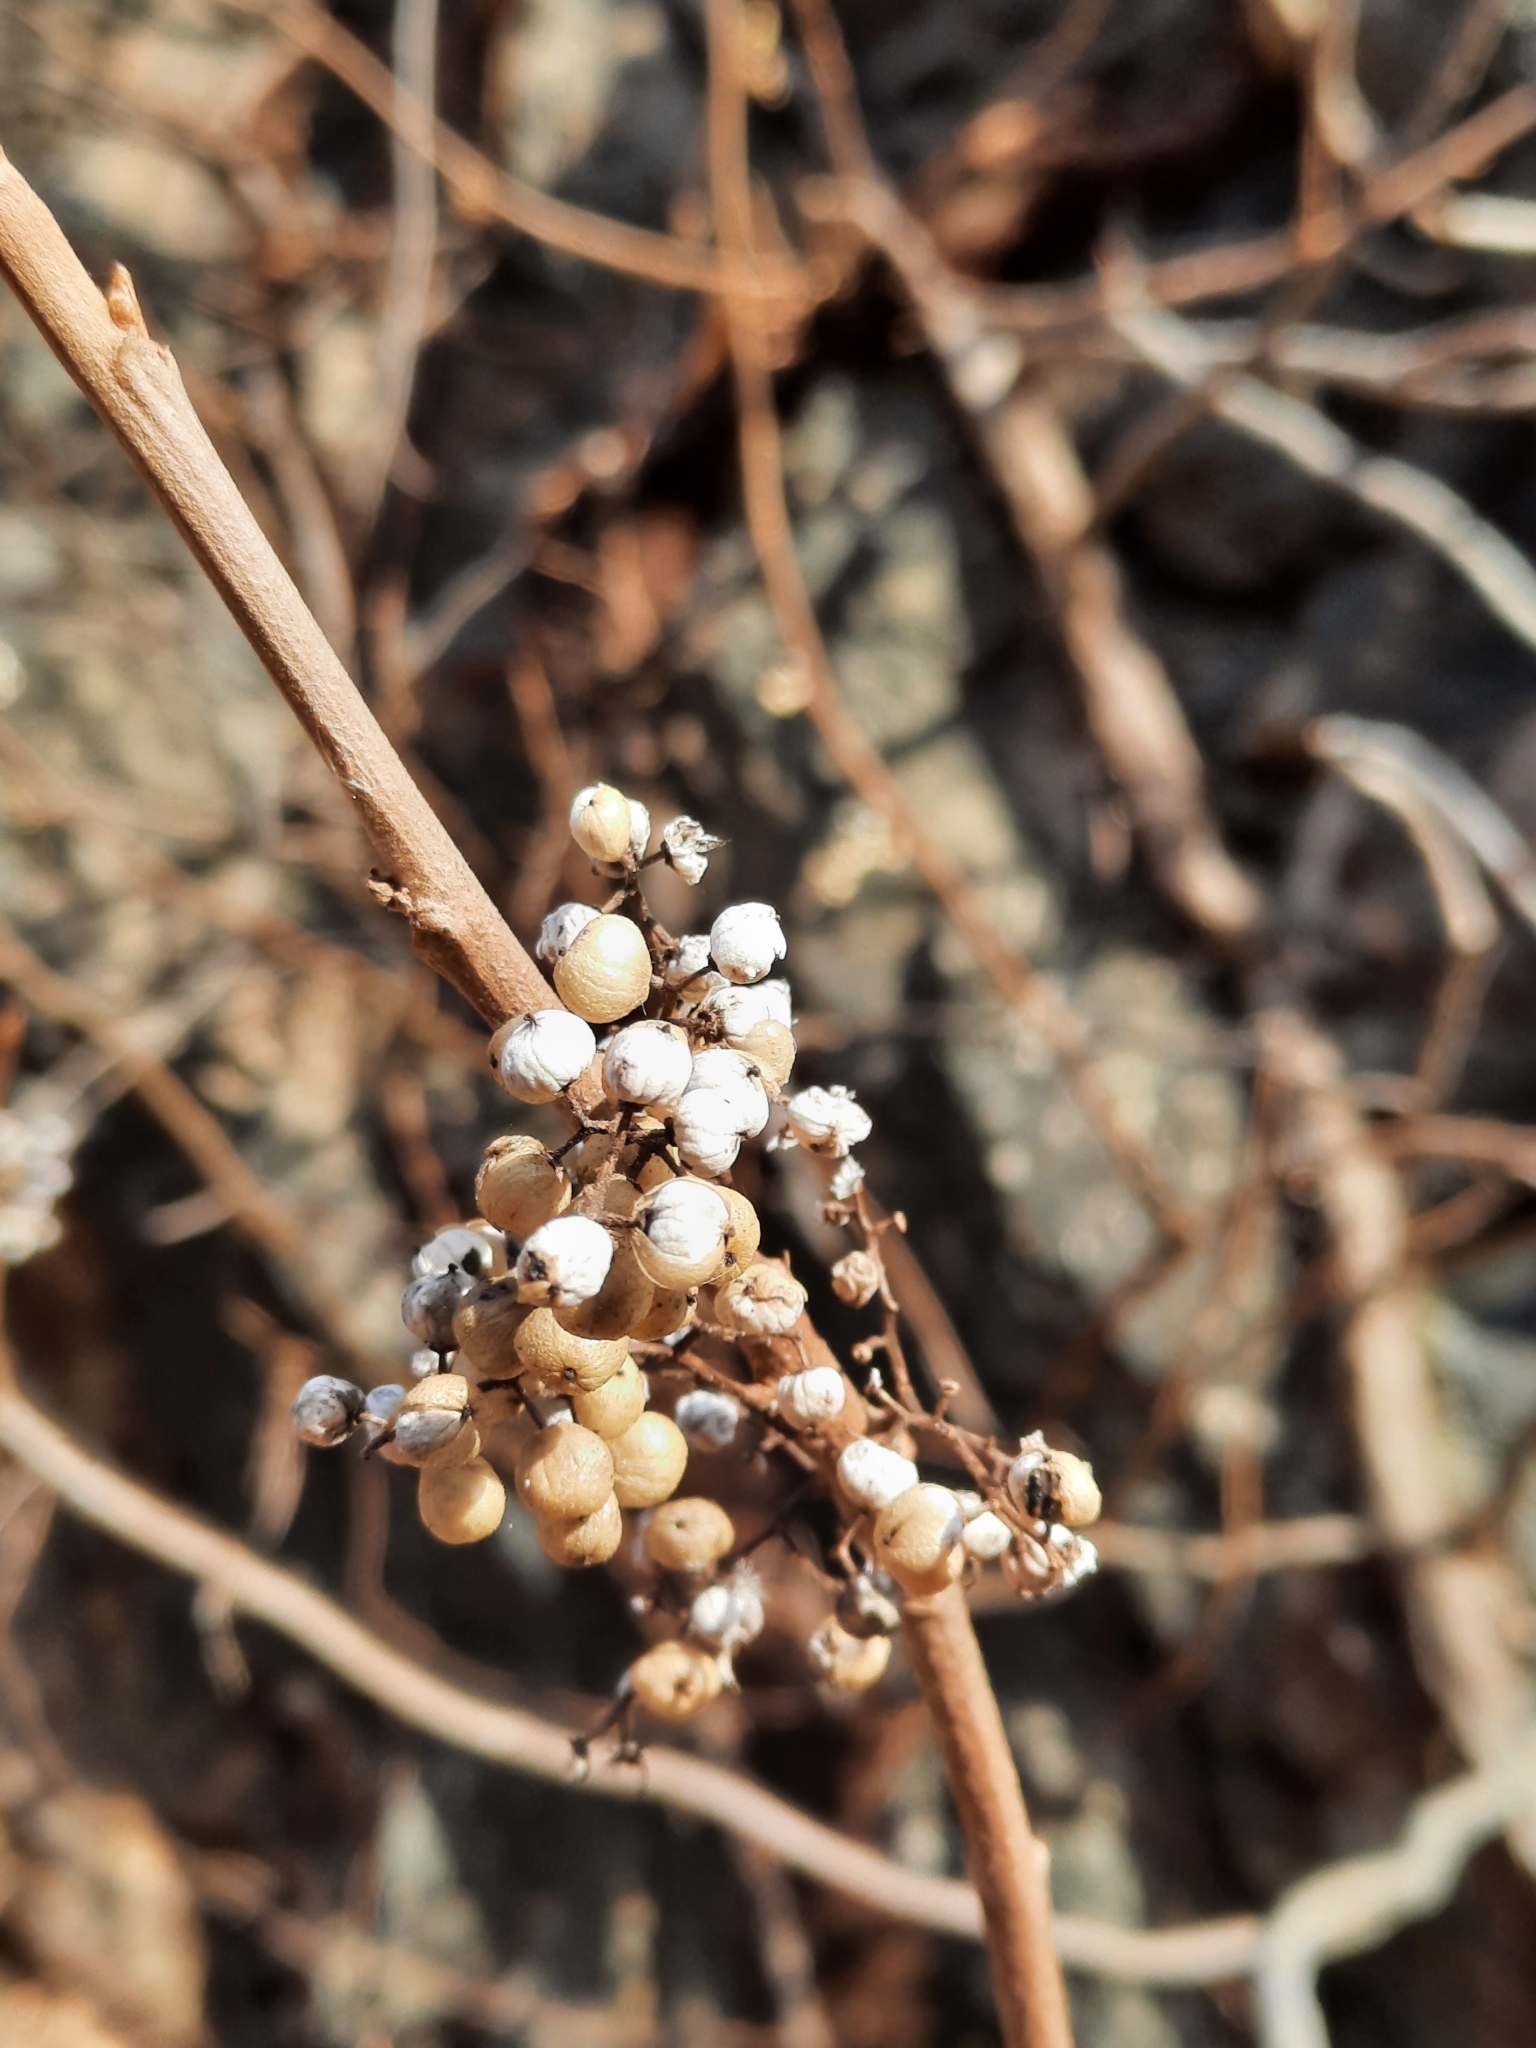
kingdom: Plantae
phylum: Tracheophyta
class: Magnoliopsida
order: Sapindales
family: Anacardiaceae
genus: Toxicodendron
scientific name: Toxicodendron radicans
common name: Poison ivy
